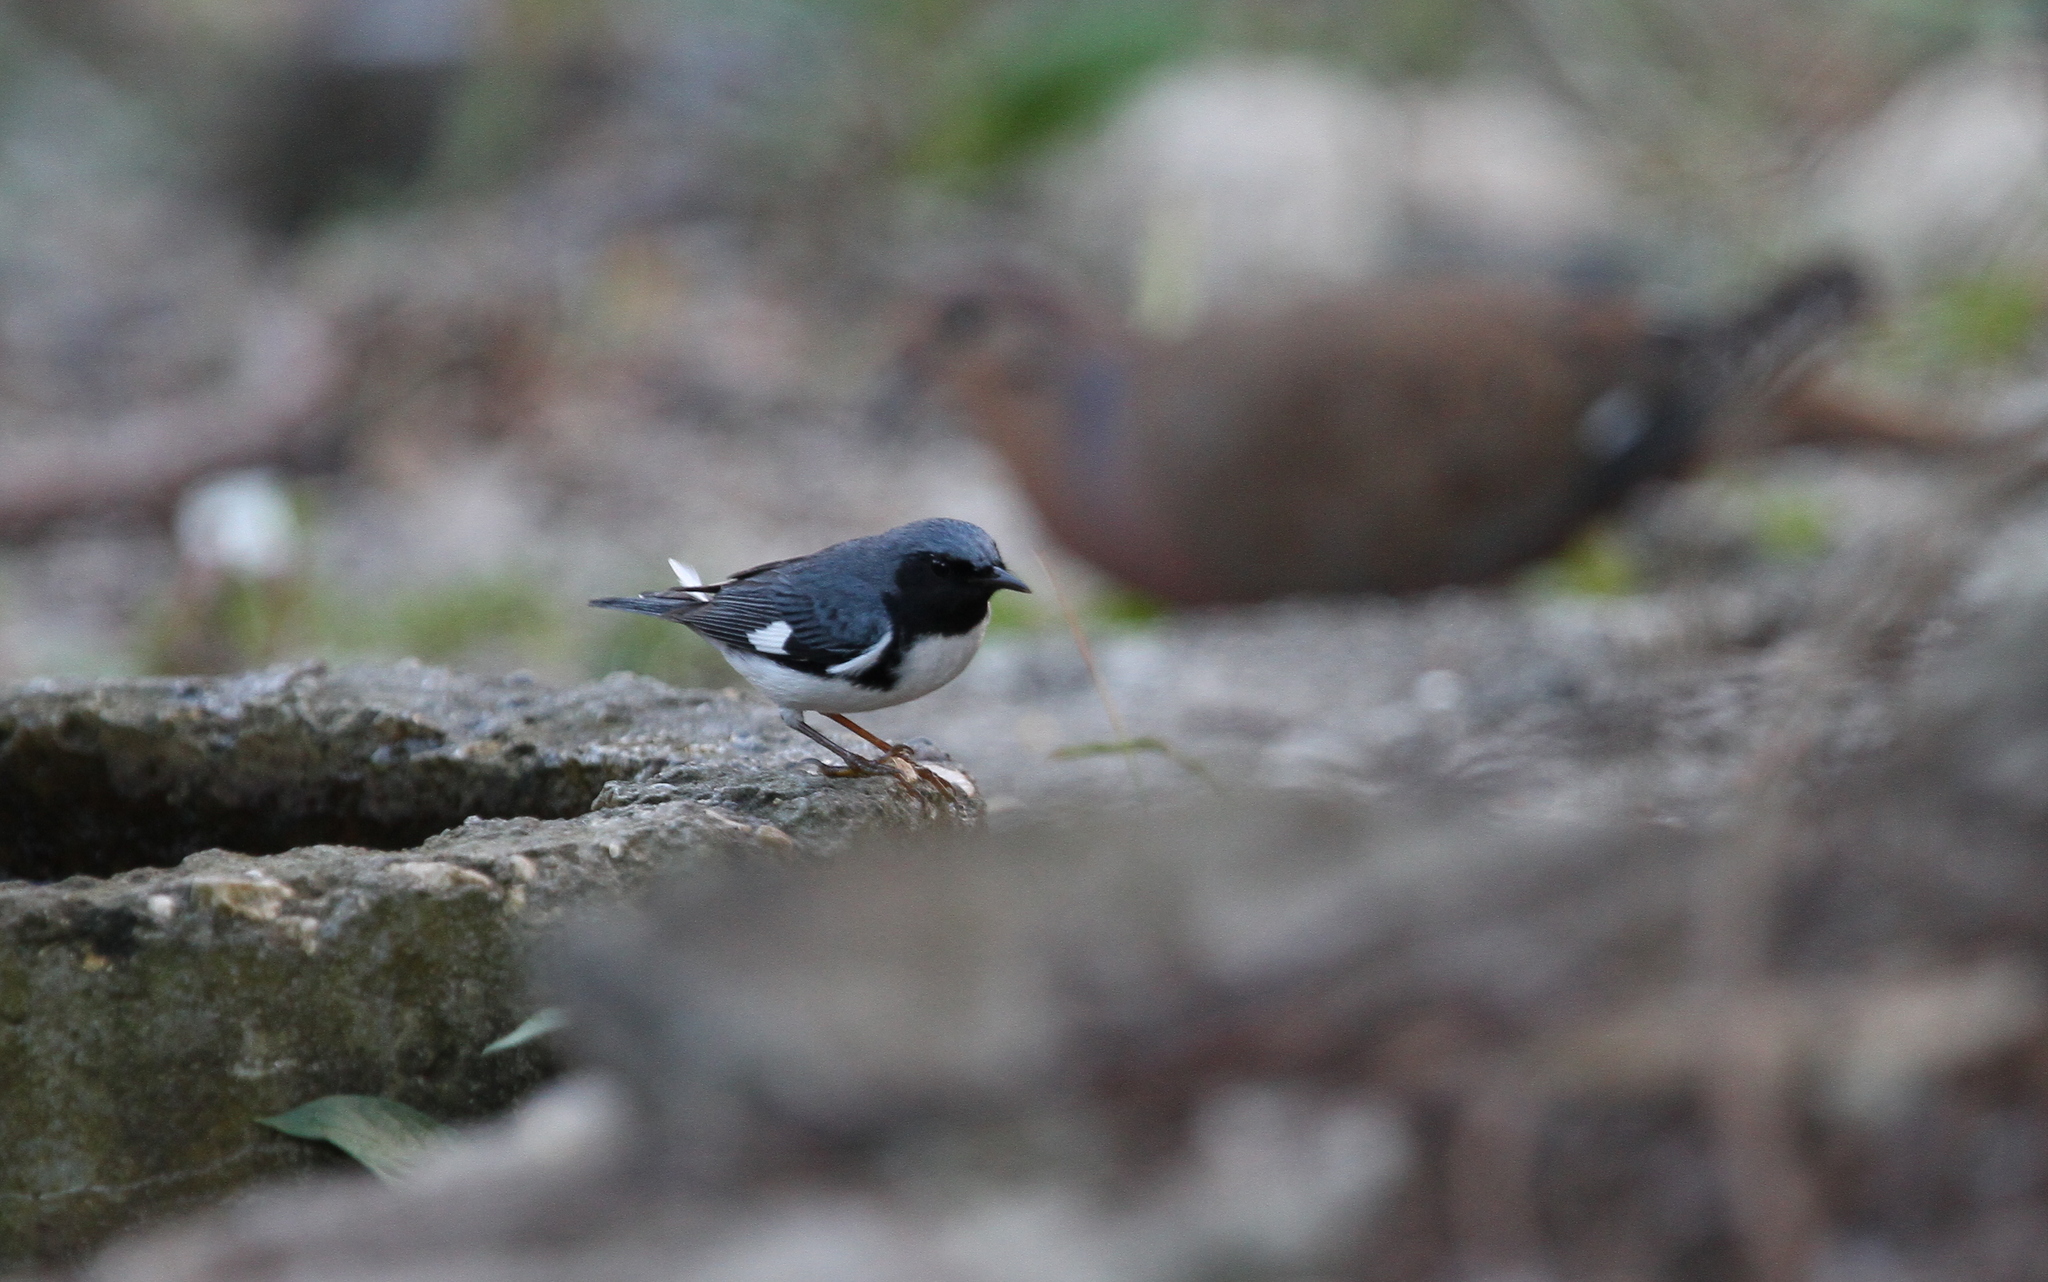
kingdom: Animalia
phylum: Chordata
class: Aves
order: Passeriformes
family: Parulidae
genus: Setophaga
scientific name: Setophaga caerulescens
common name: Black-throated blue warbler
